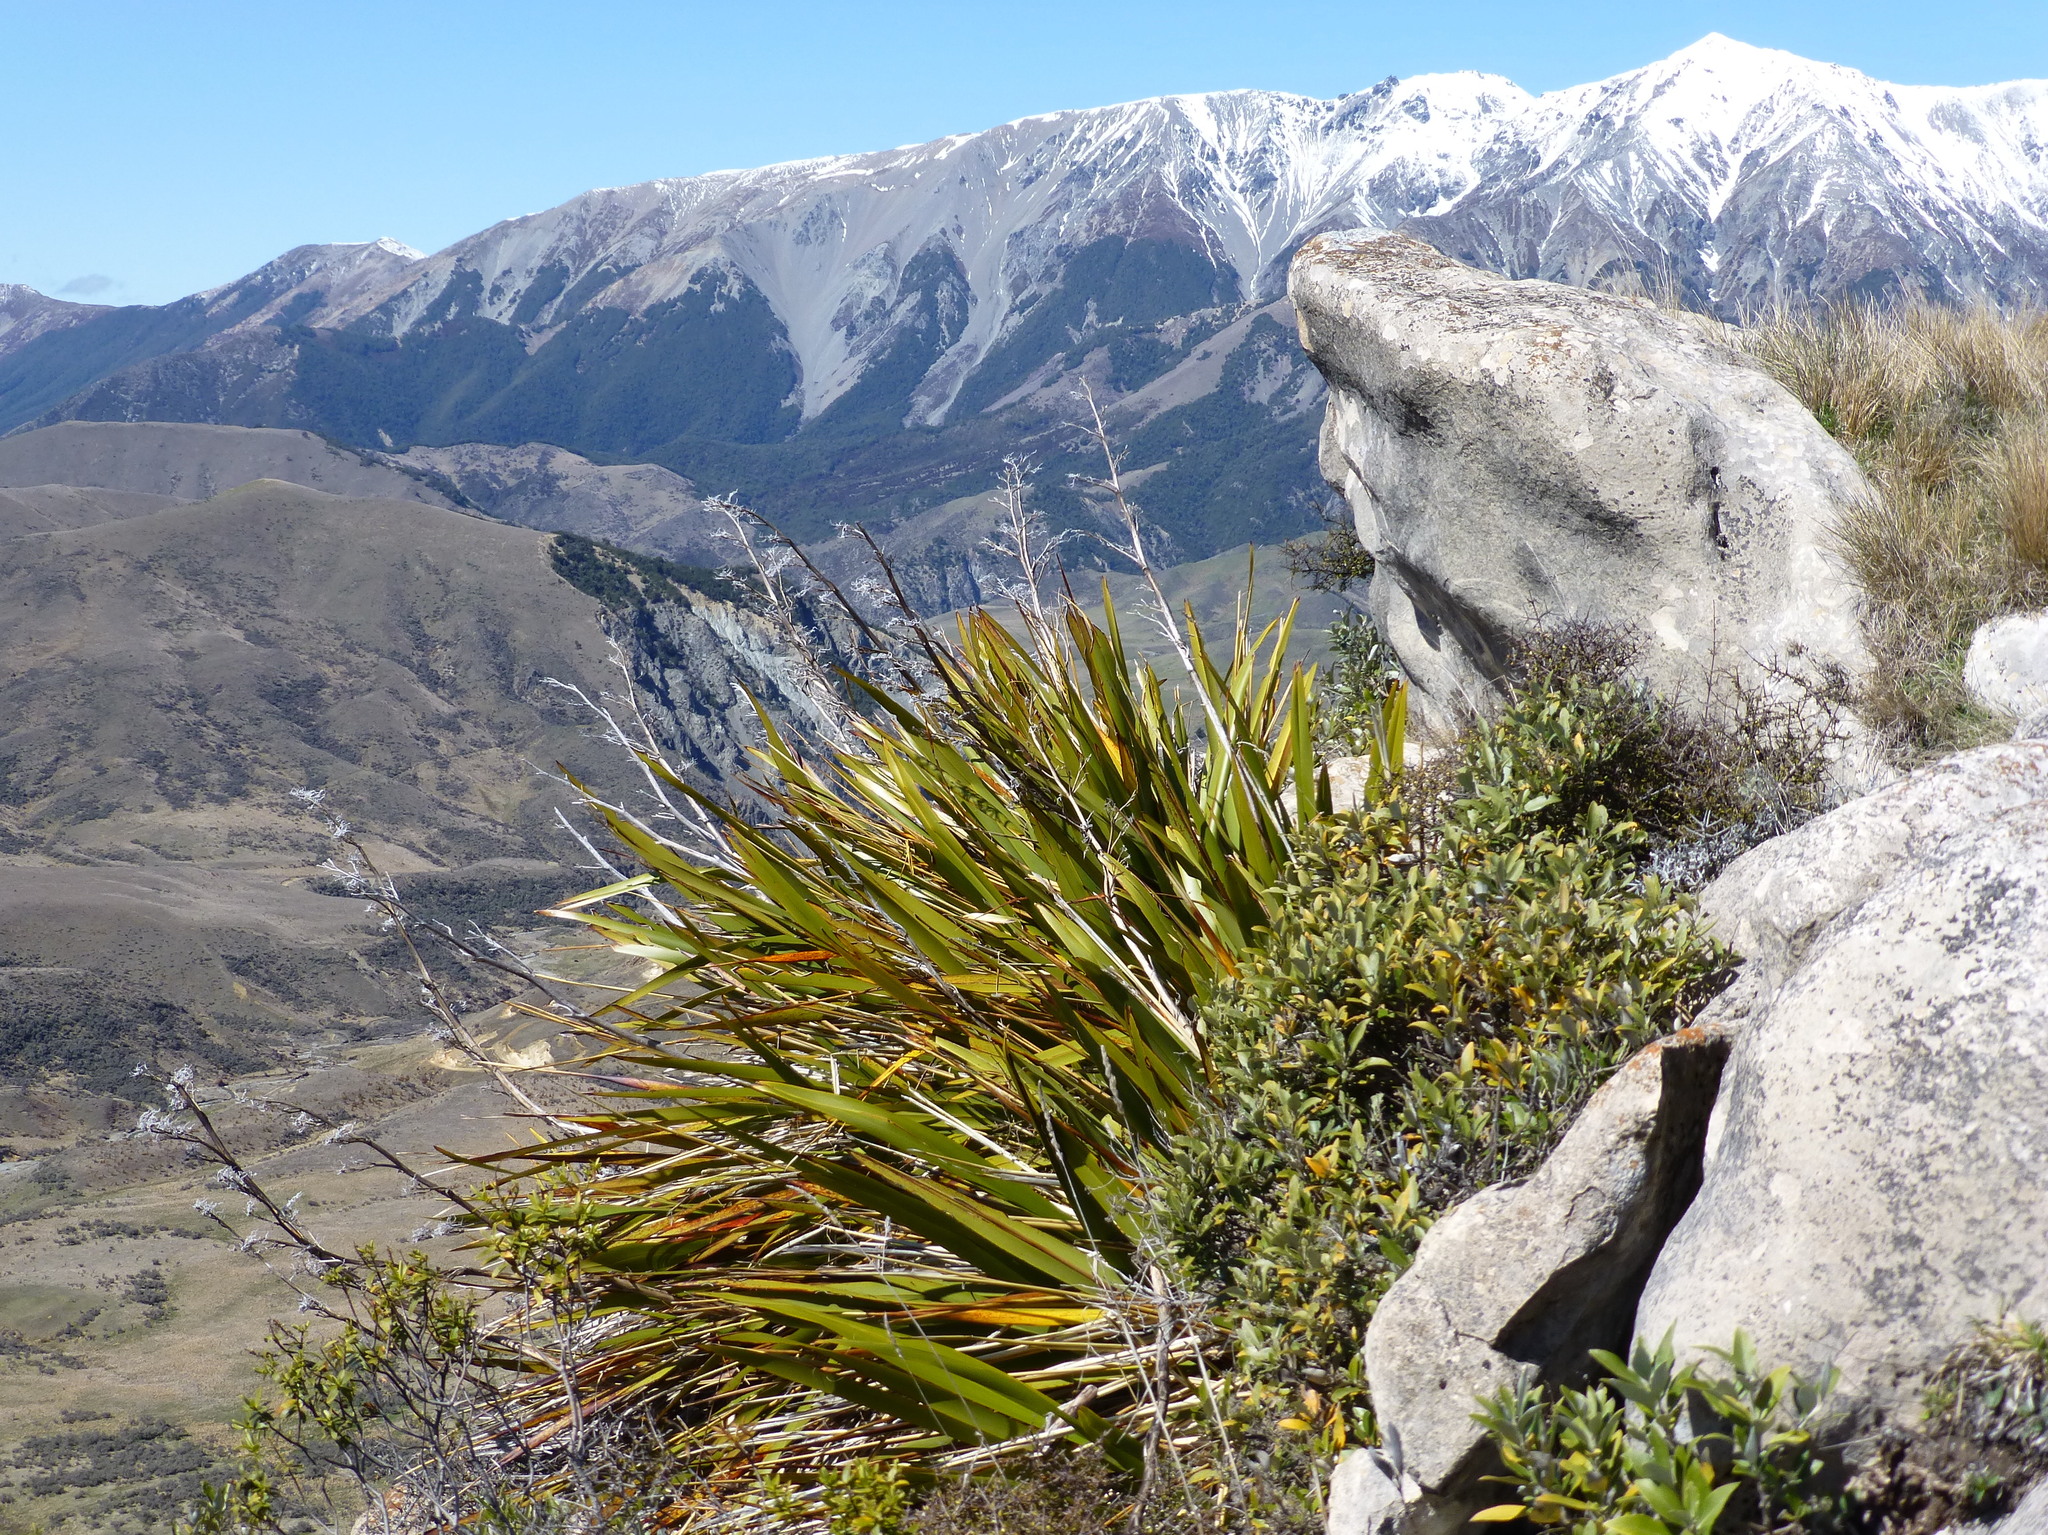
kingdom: Plantae
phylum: Tracheophyta
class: Liliopsida
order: Asparagales
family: Asphodelaceae
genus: Phormium
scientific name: Phormium colensoi
